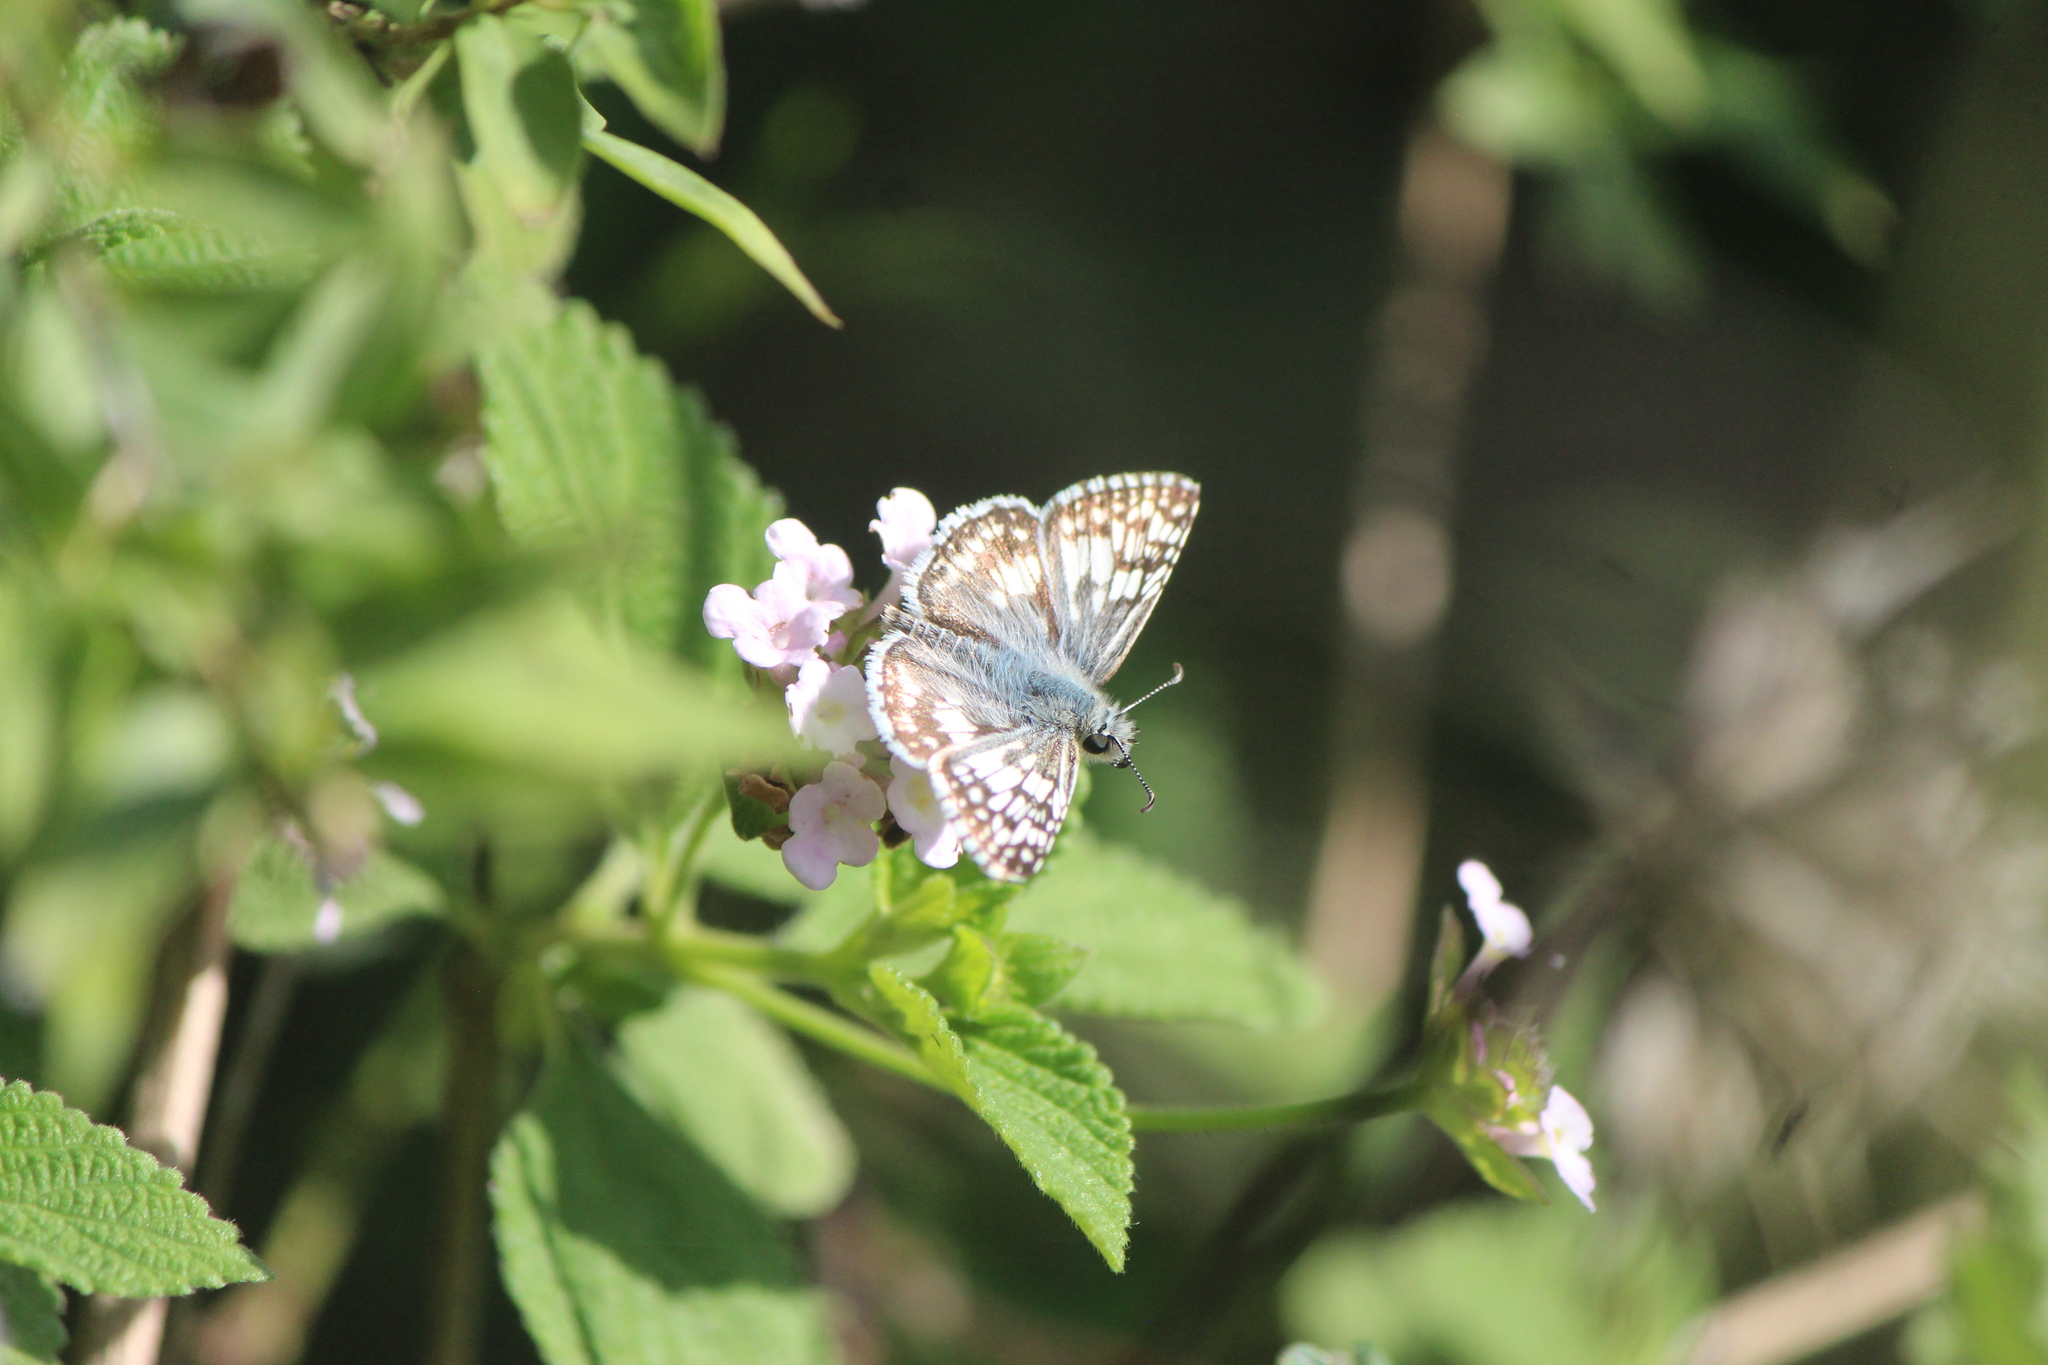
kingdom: Animalia
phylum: Arthropoda
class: Insecta
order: Lepidoptera
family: Hesperiidae
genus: Burnsius
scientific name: Burnsius communis
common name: Common checkered-skipper
